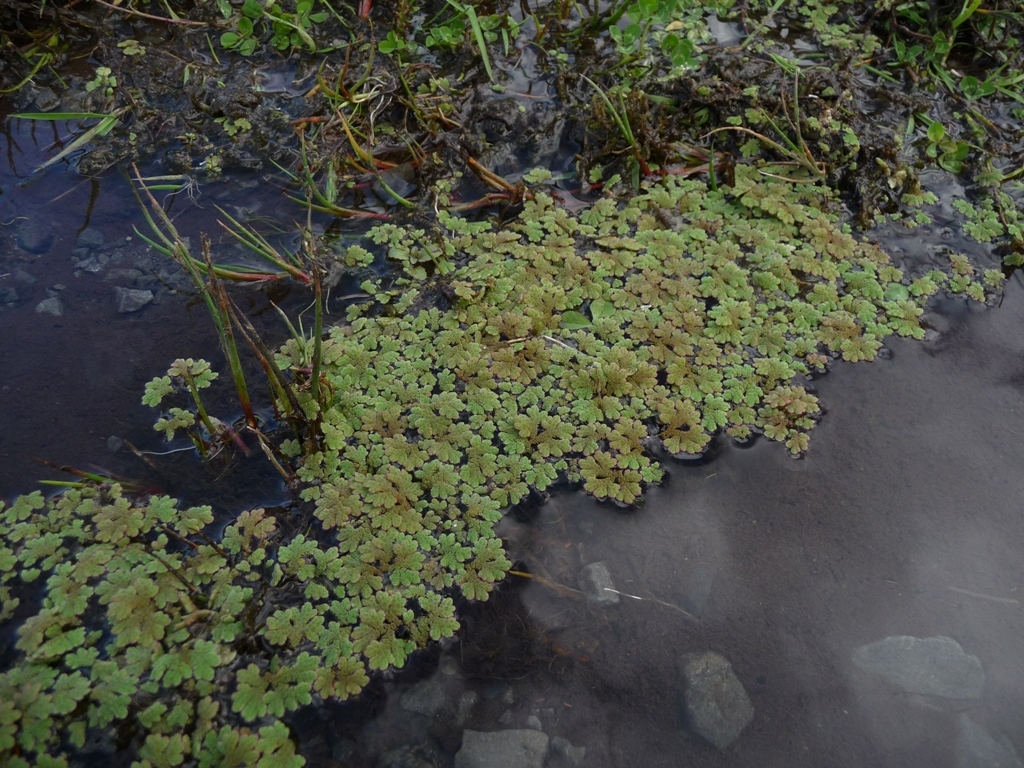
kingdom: Plantae
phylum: Tracheophyta
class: Polypodiopsida
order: Salviniales
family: Salviniaceae
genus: Azolla
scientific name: Azolla rubra
